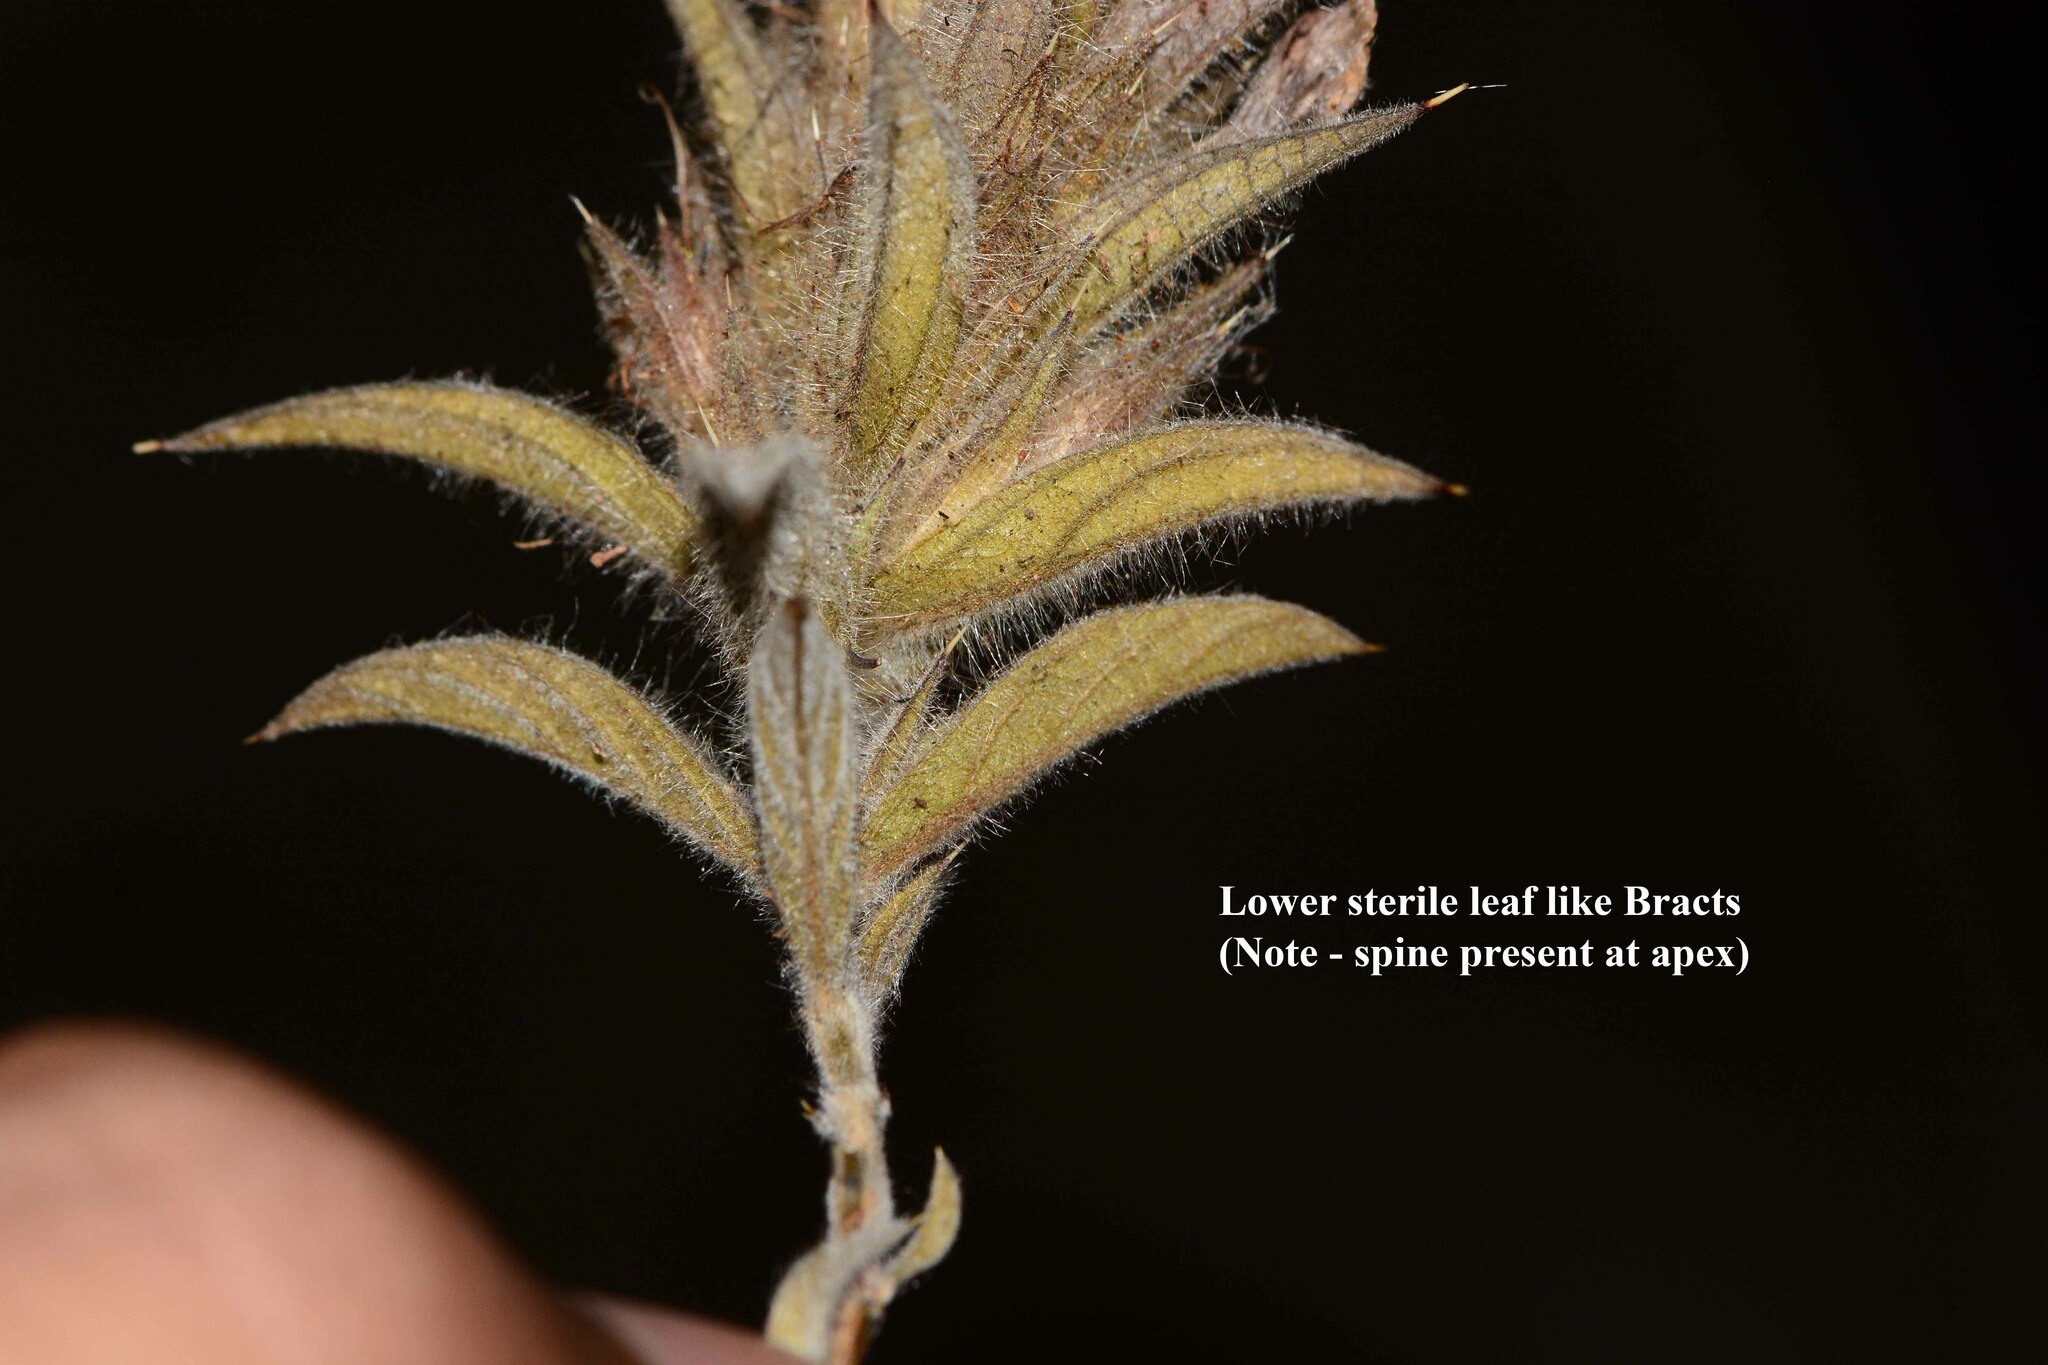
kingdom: Plantae
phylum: Tracheophyta
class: Magnoliopsida
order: Lamiales
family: Acanthaceae
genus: Lepidagathis
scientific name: Lepidagathis
